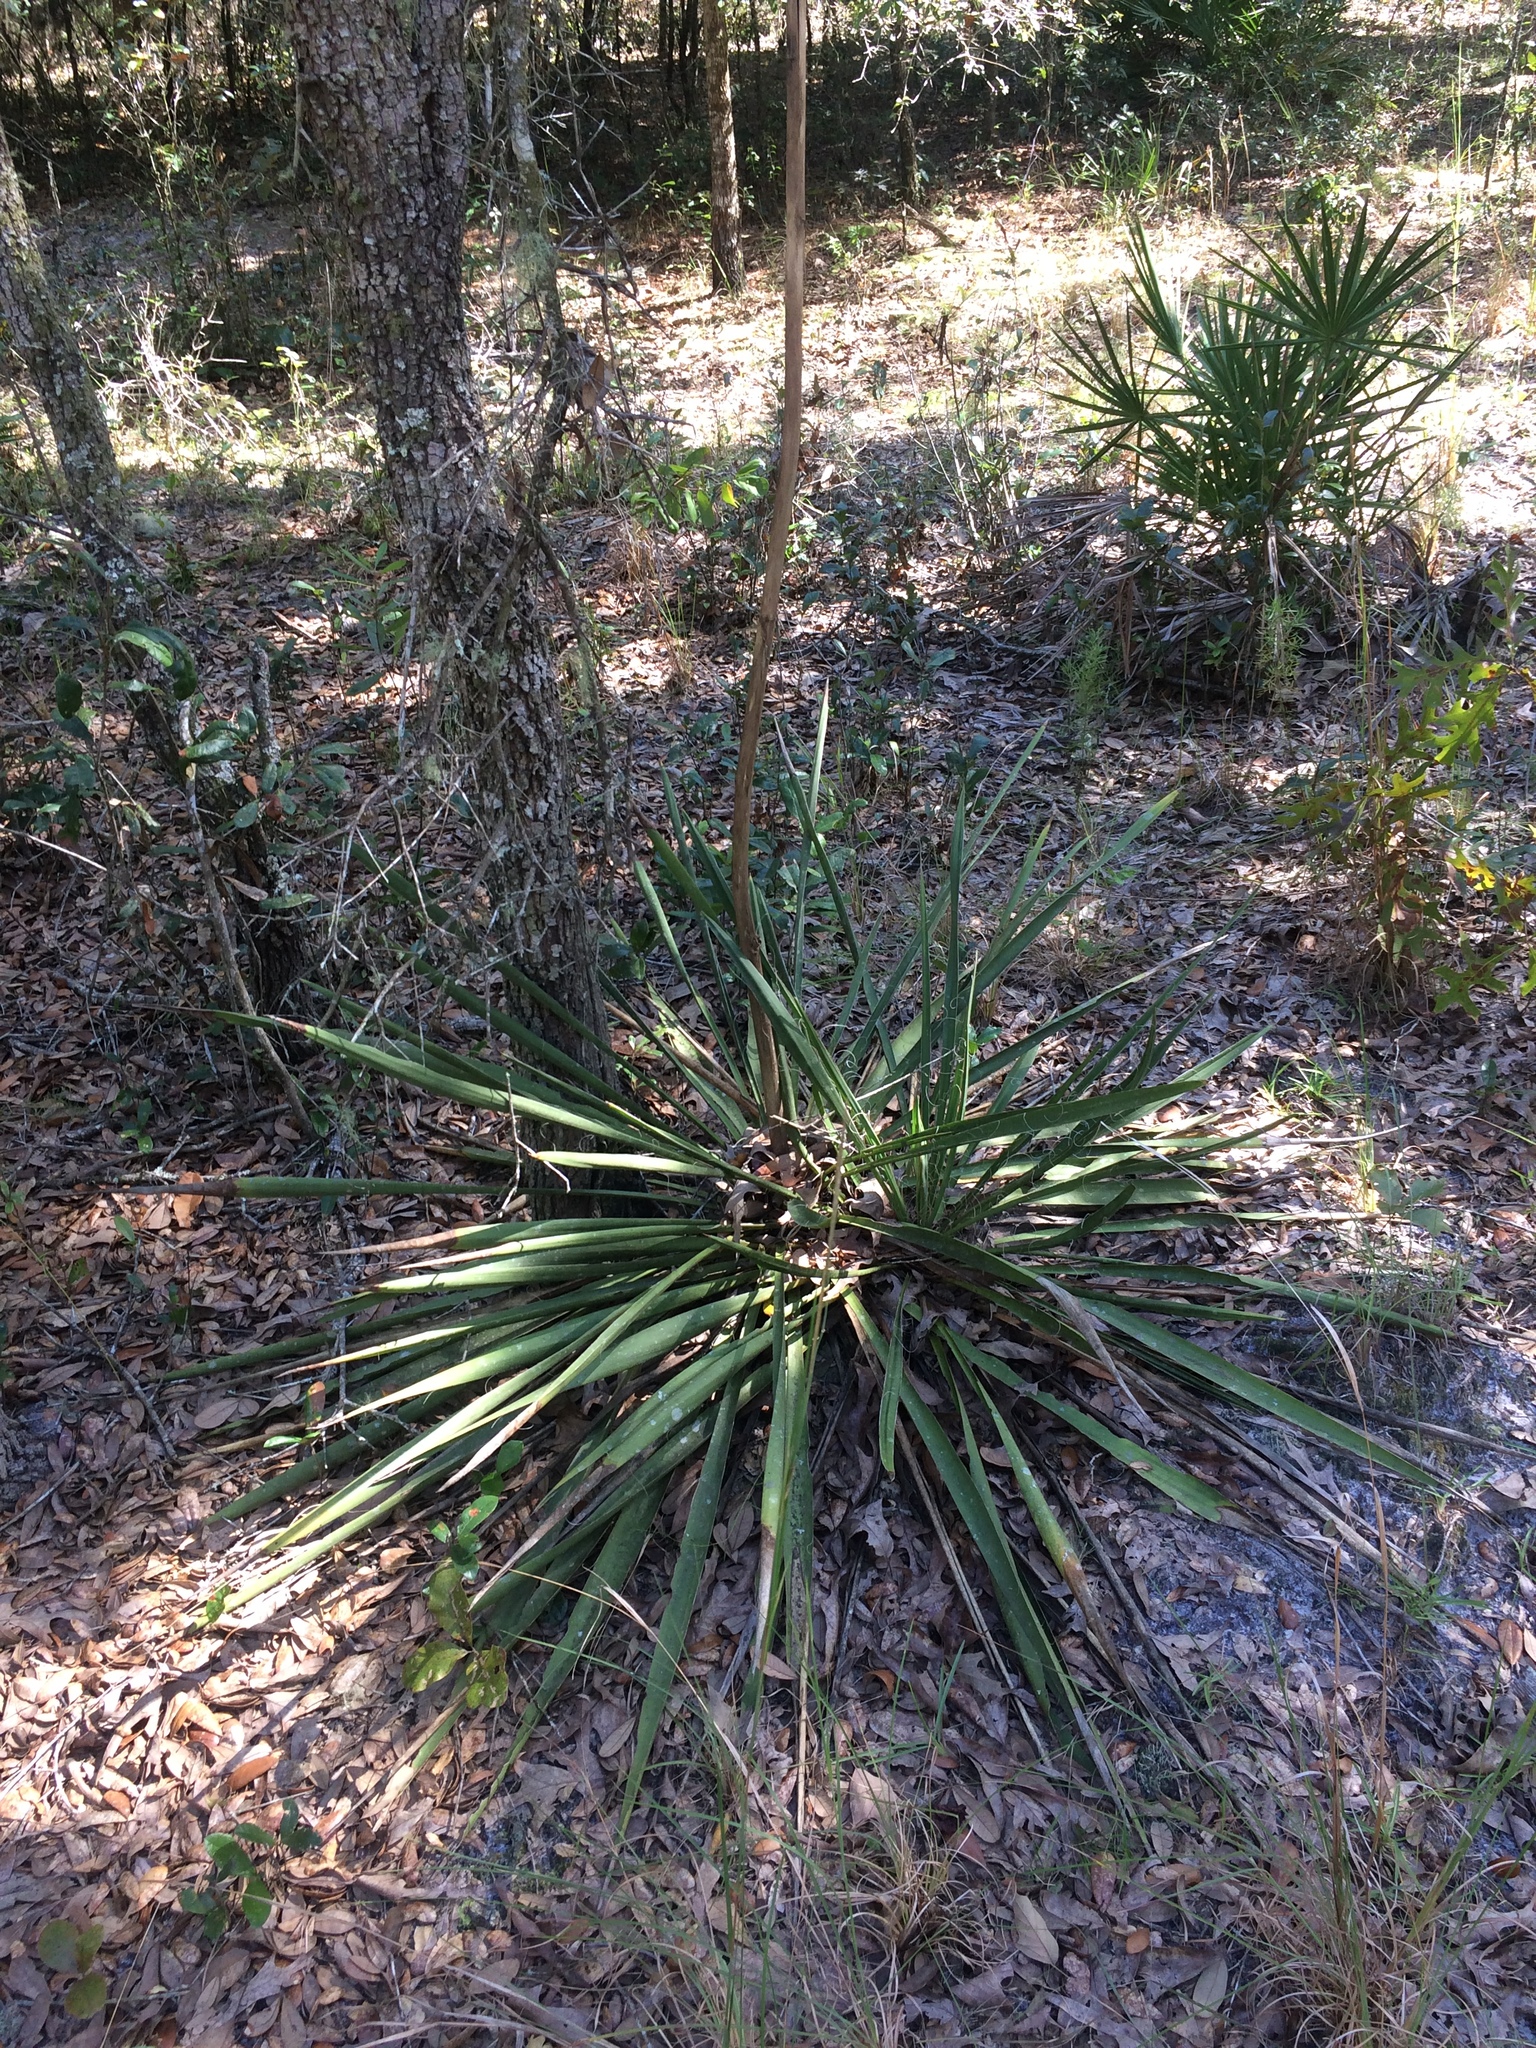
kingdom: Plantae
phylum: Tracheophyta
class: Liliopsida
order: Asparagales
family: Asparagaceae
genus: Yucca
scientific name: Yucca filamentosa
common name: Adam's-needle
